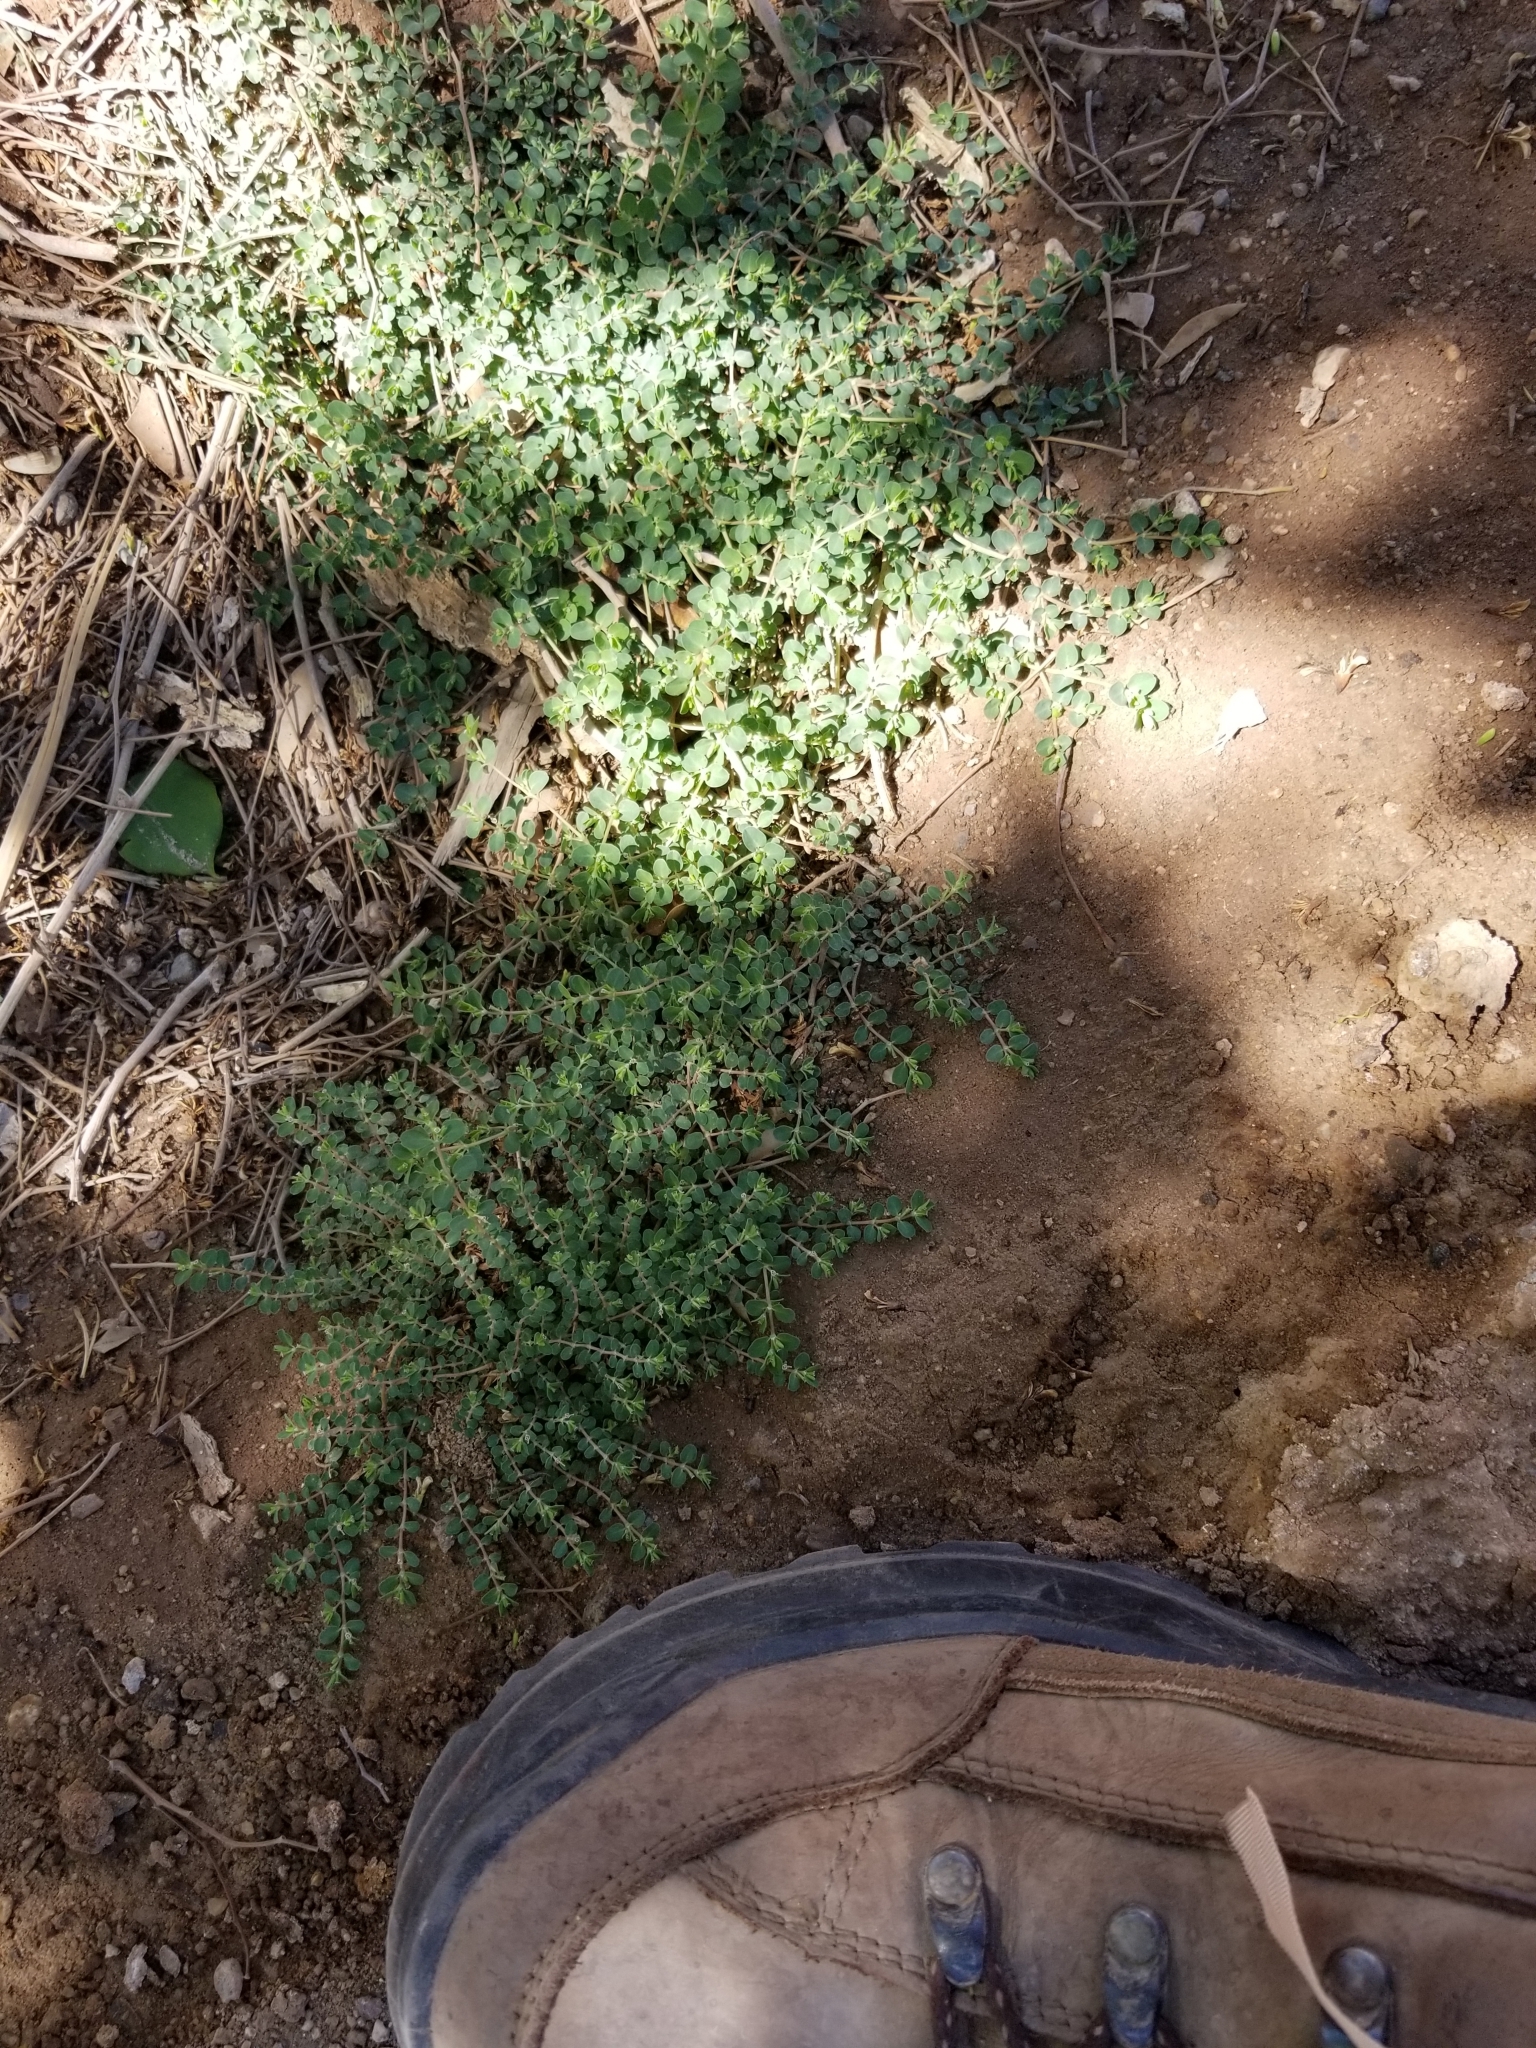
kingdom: Plantae
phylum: Tracheophyta
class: Magnoliopsida
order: Malpighiales
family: Euphorbiaceae
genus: Euphorbia
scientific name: Euphorbia serpens
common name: Matted sandmat
